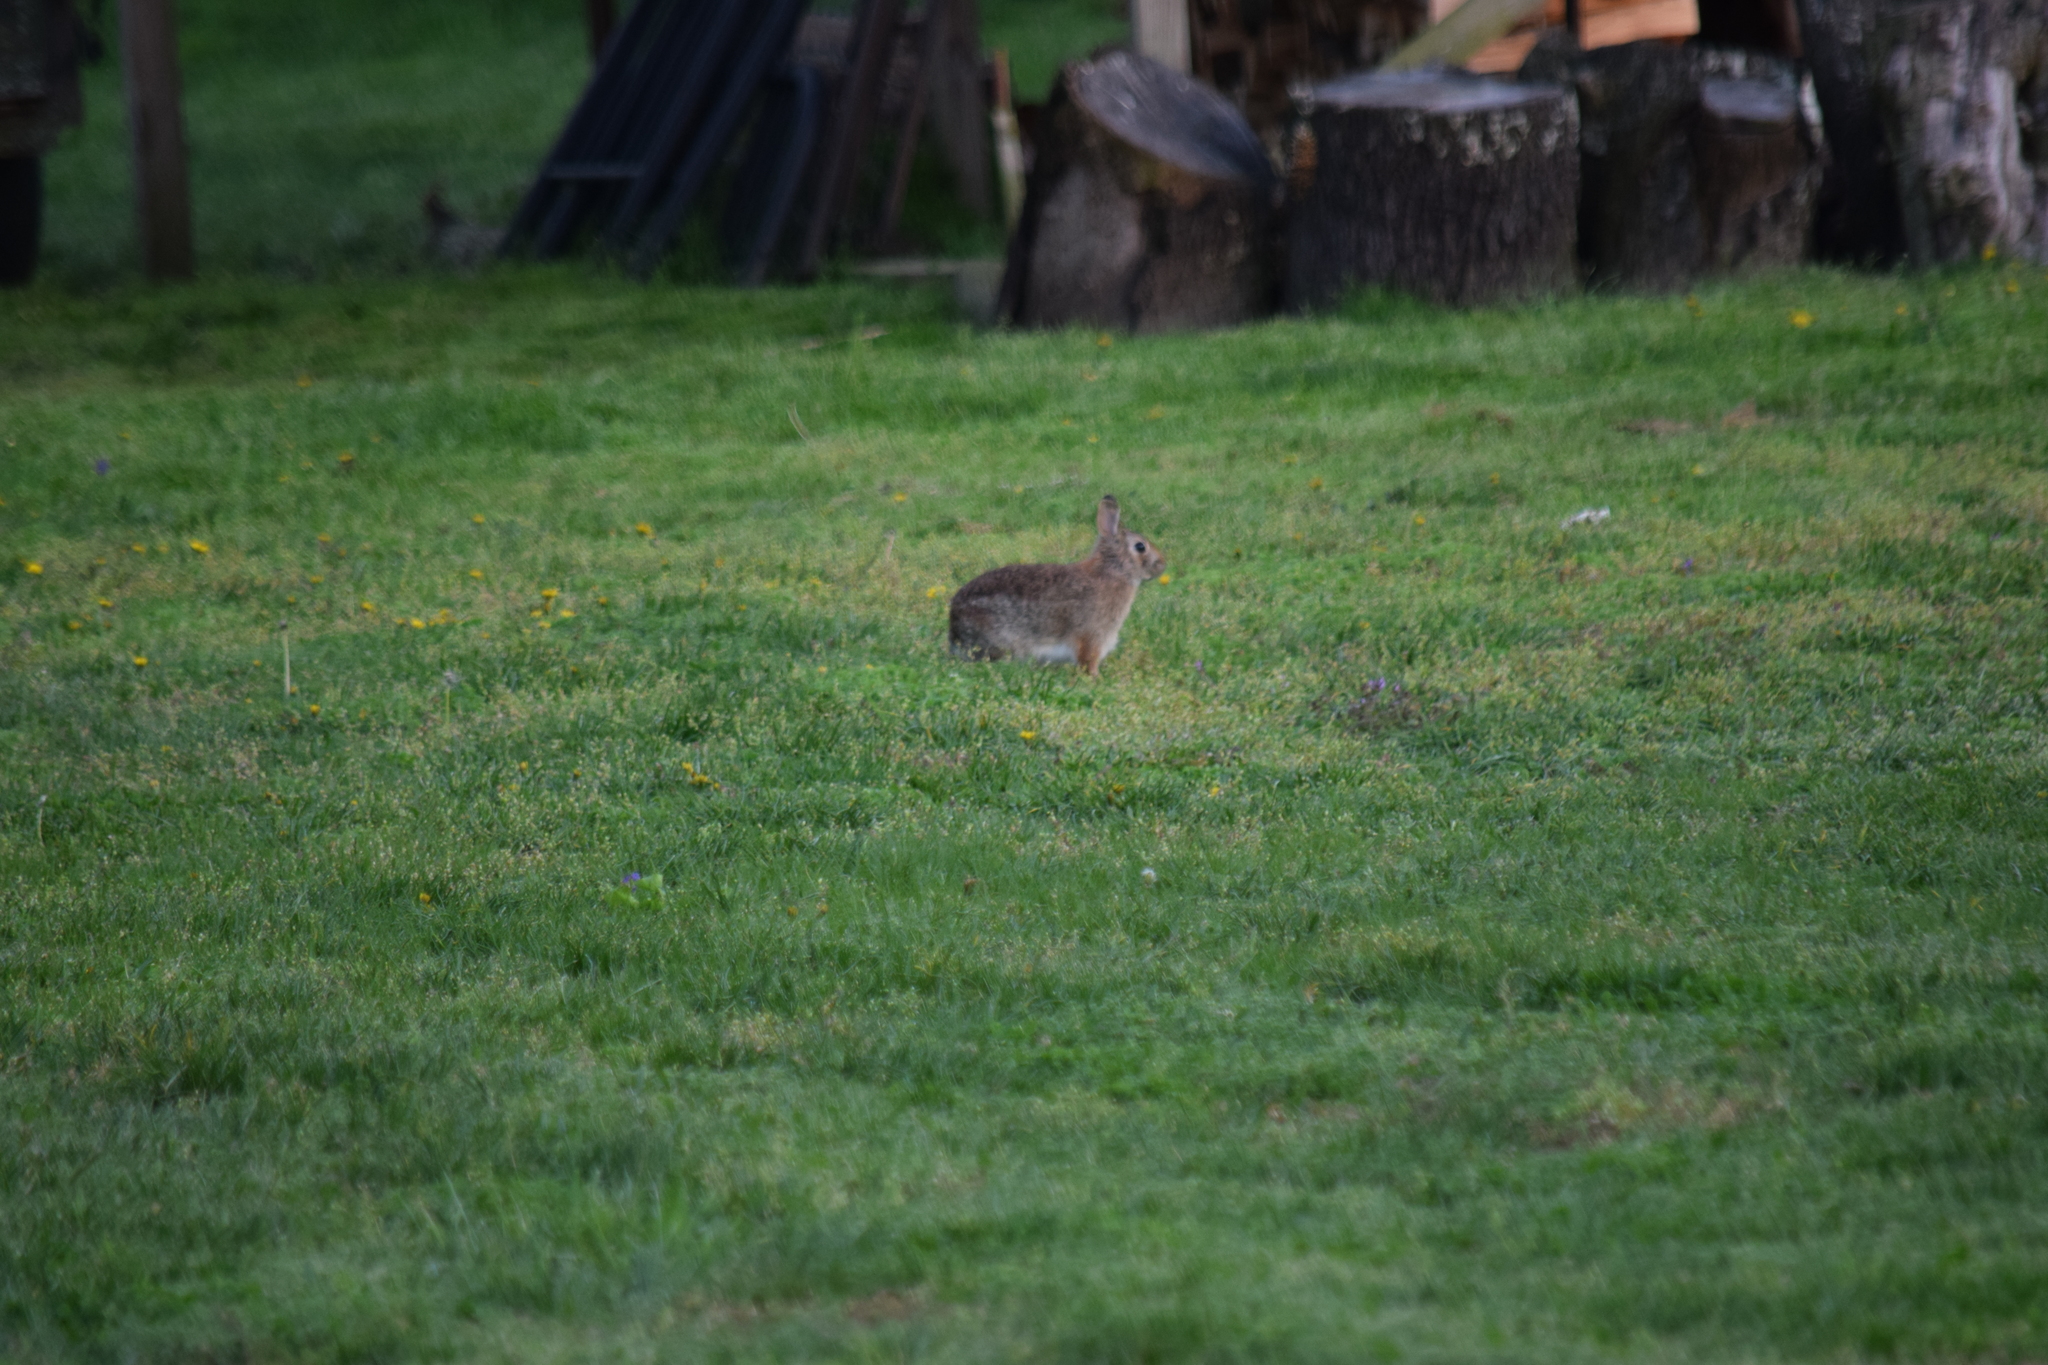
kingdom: Animalia
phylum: Chordata
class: Mammalia
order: Lagomorpha
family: Leporidae
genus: Sylvilagus
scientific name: Sylvilagus floridanus
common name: Eastern cottontail
